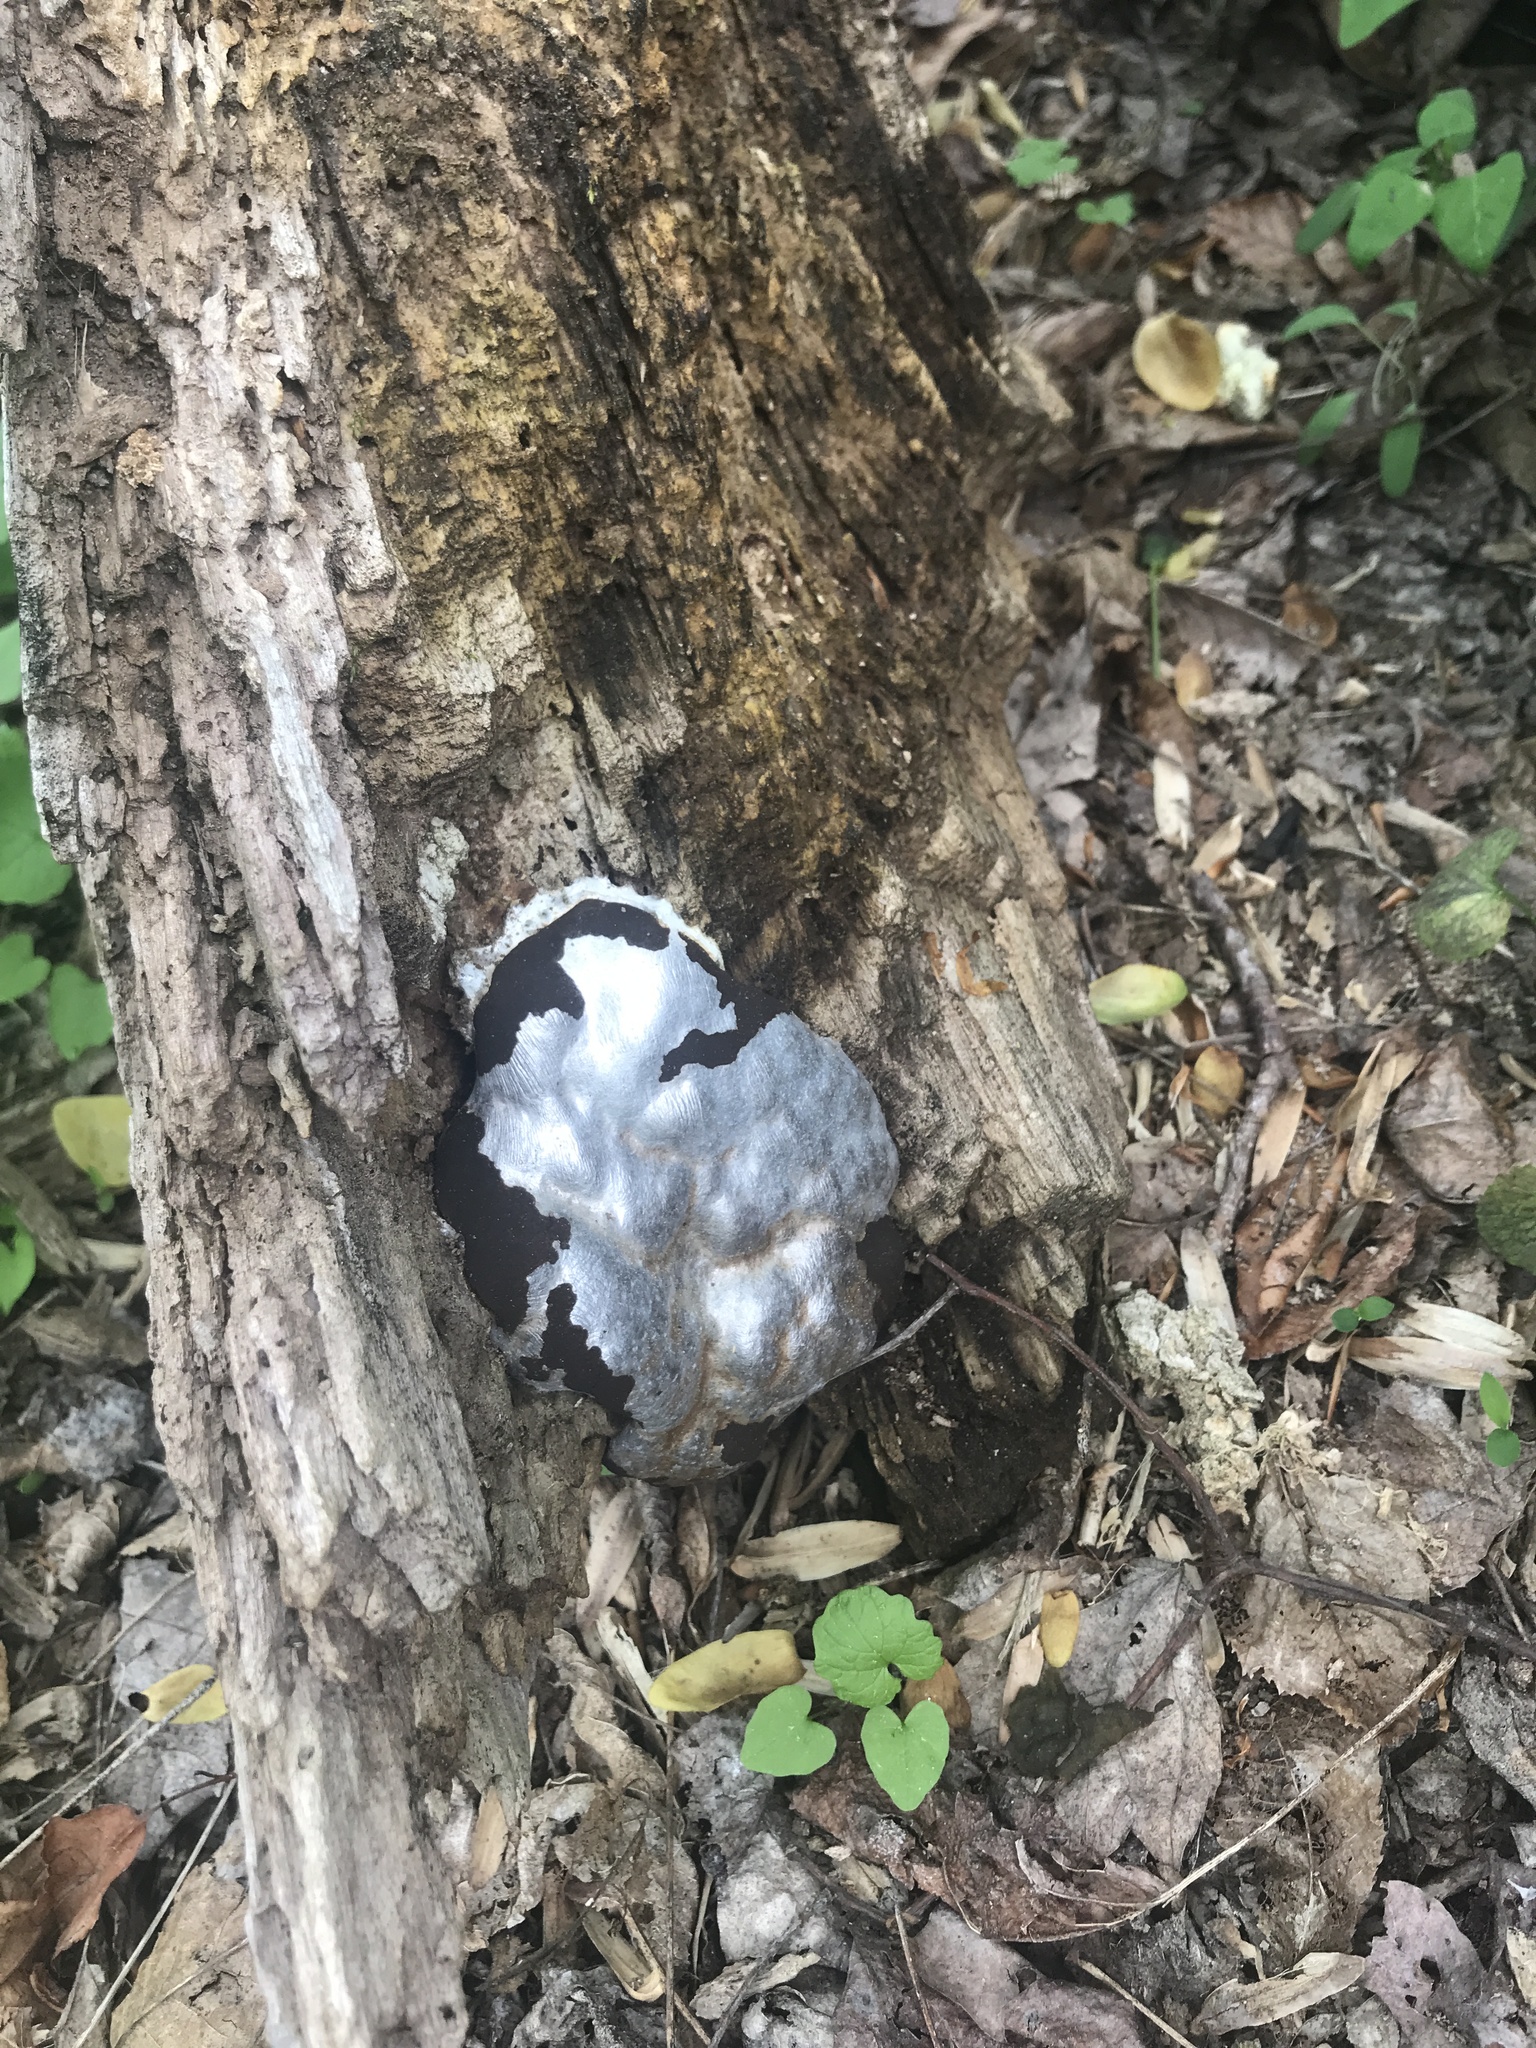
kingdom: Protozoa
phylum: Mycetozoa
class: Myxomycetes
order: Cribrariales
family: Tubiferaceae
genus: Reticularia
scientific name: Reticularia lycoperdon
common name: False puffball
